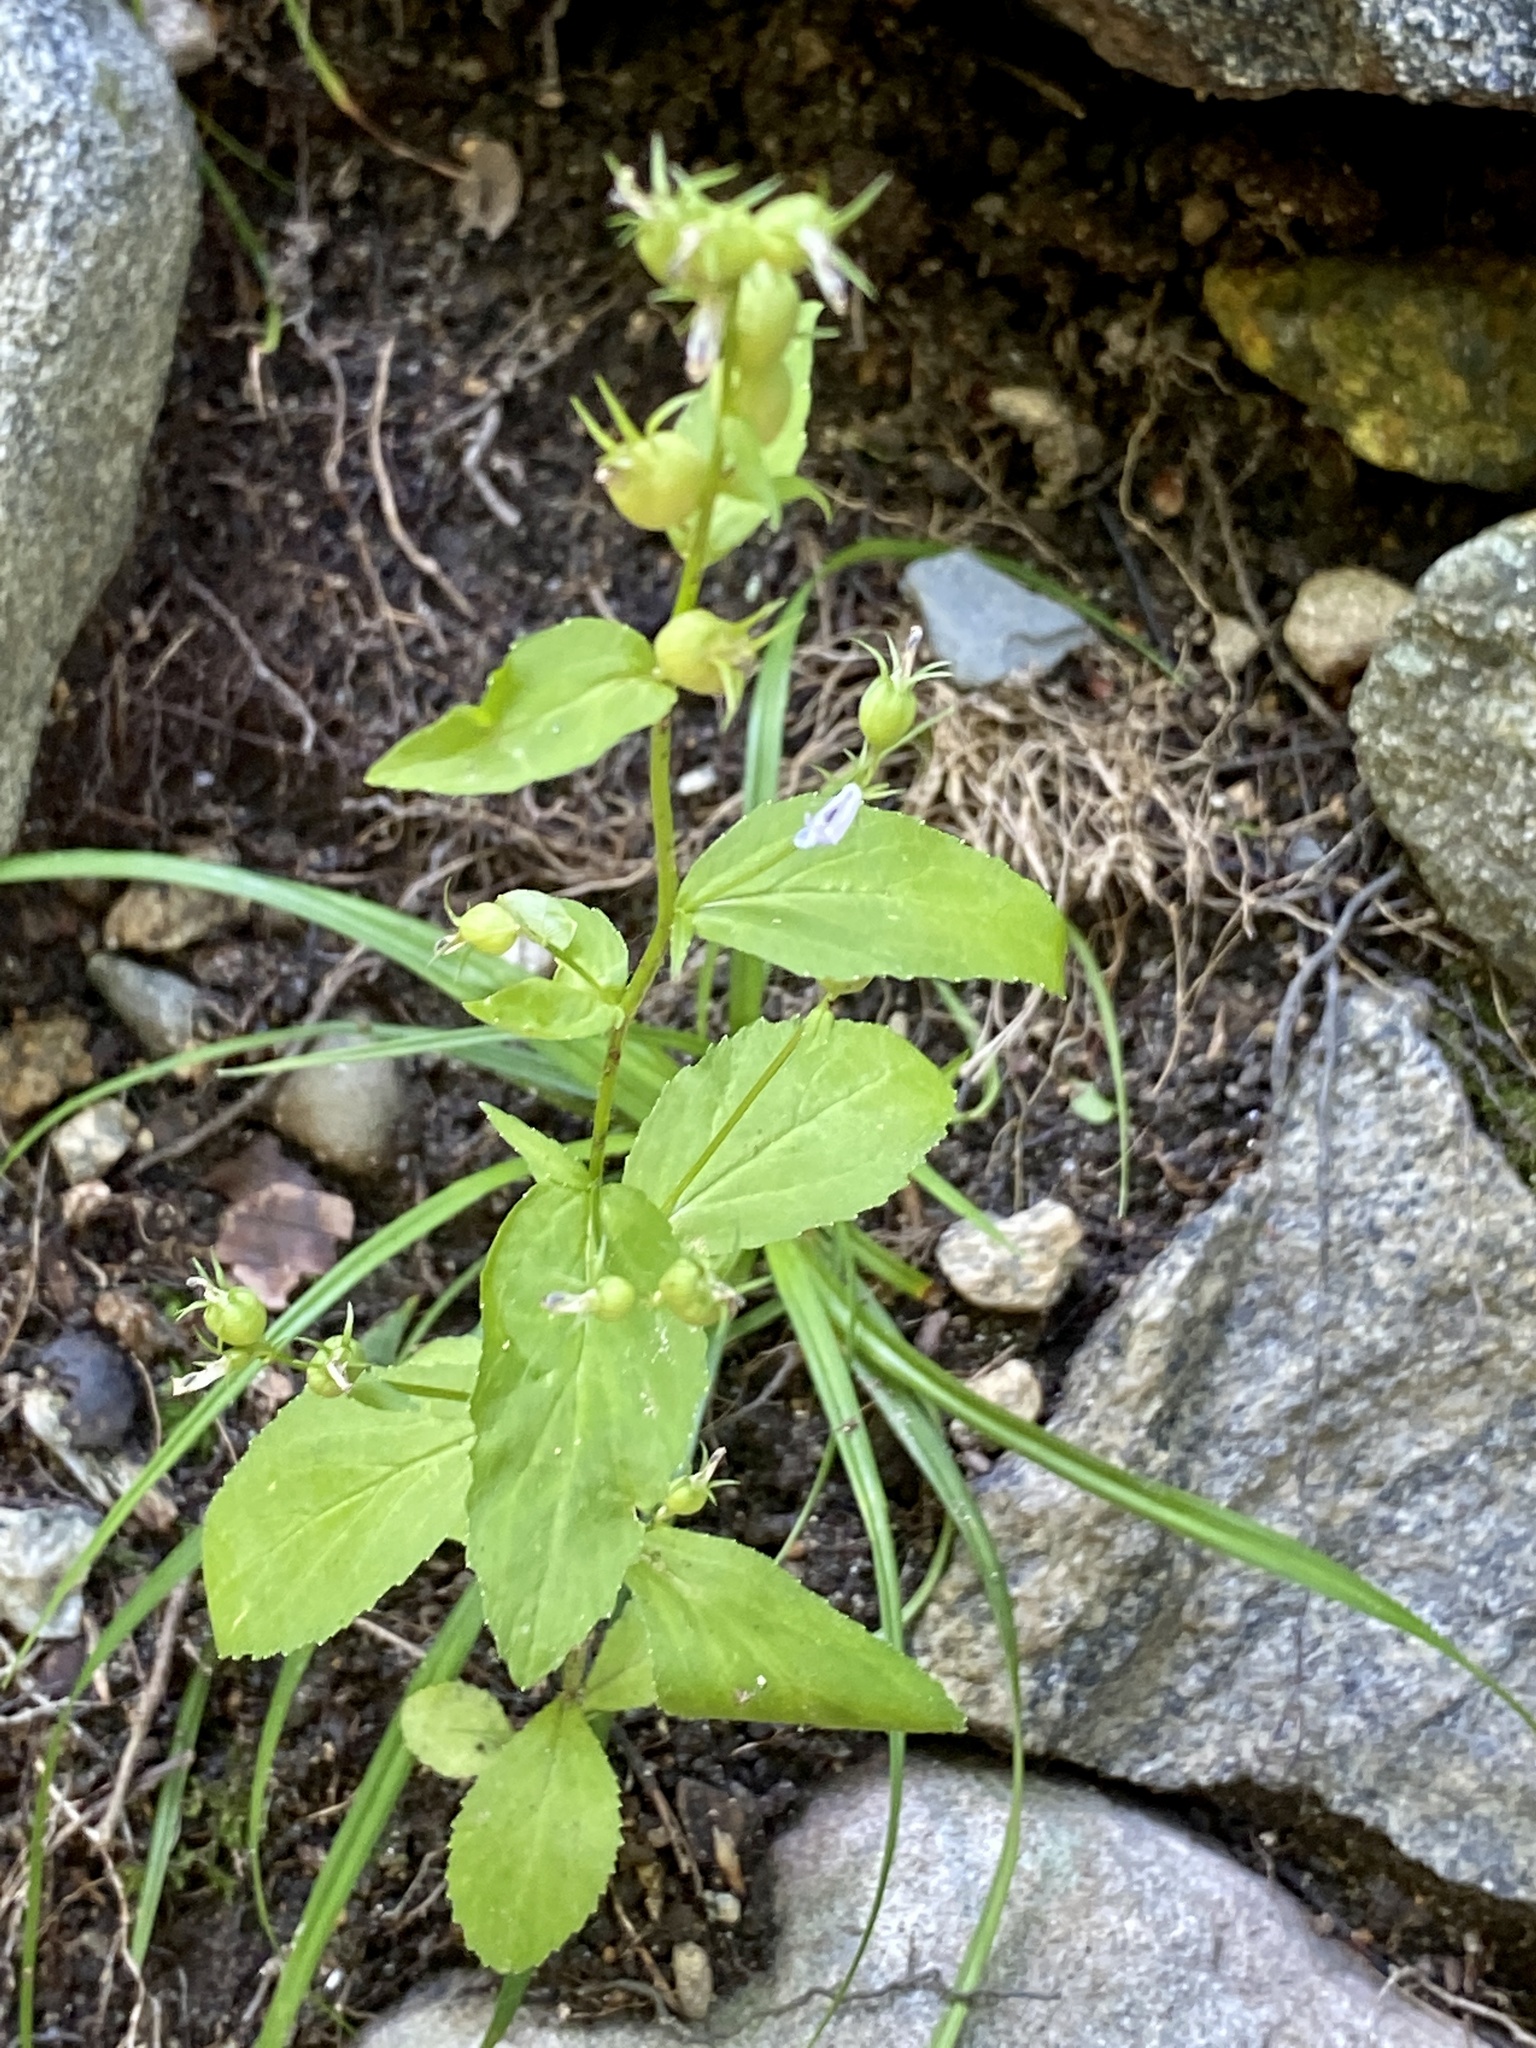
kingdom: Plantae
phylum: Tracheophyta
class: Magnoliopsida
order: Asterales
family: Campanulaceae
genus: Lobelia
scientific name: Lobelia inflata
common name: Indian tobacco
